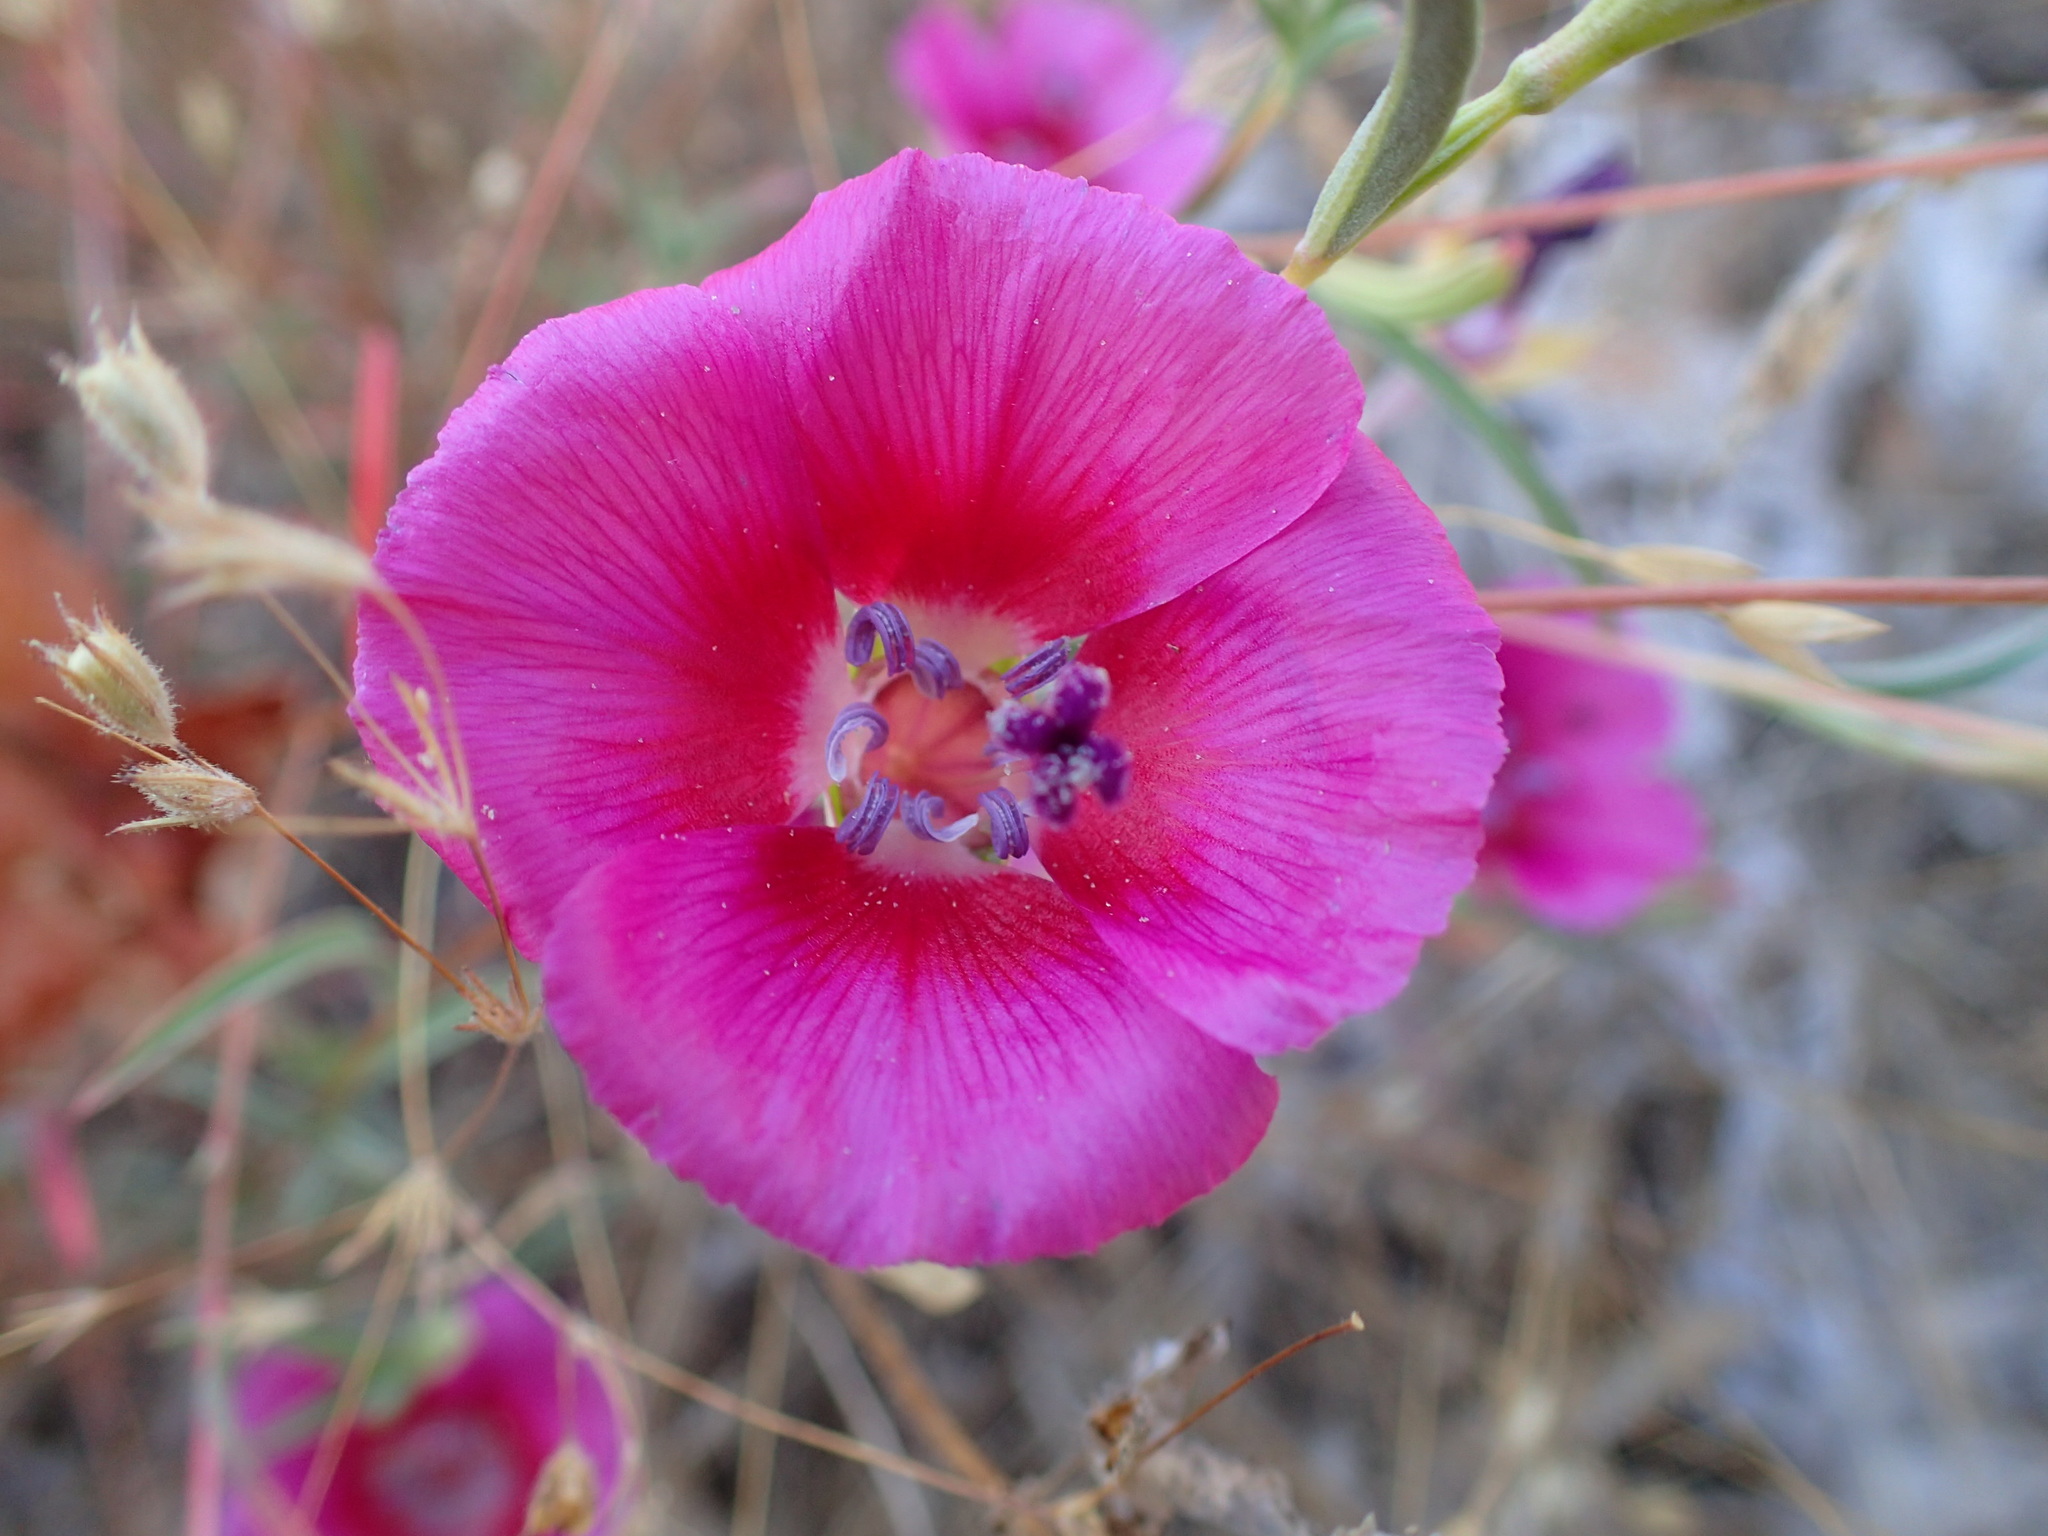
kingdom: Plantae
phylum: Tracheophyta
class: Magnoliopsida
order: Myrtales
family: Onagraceae
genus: Clarkia
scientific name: Clarkia rubicunda
